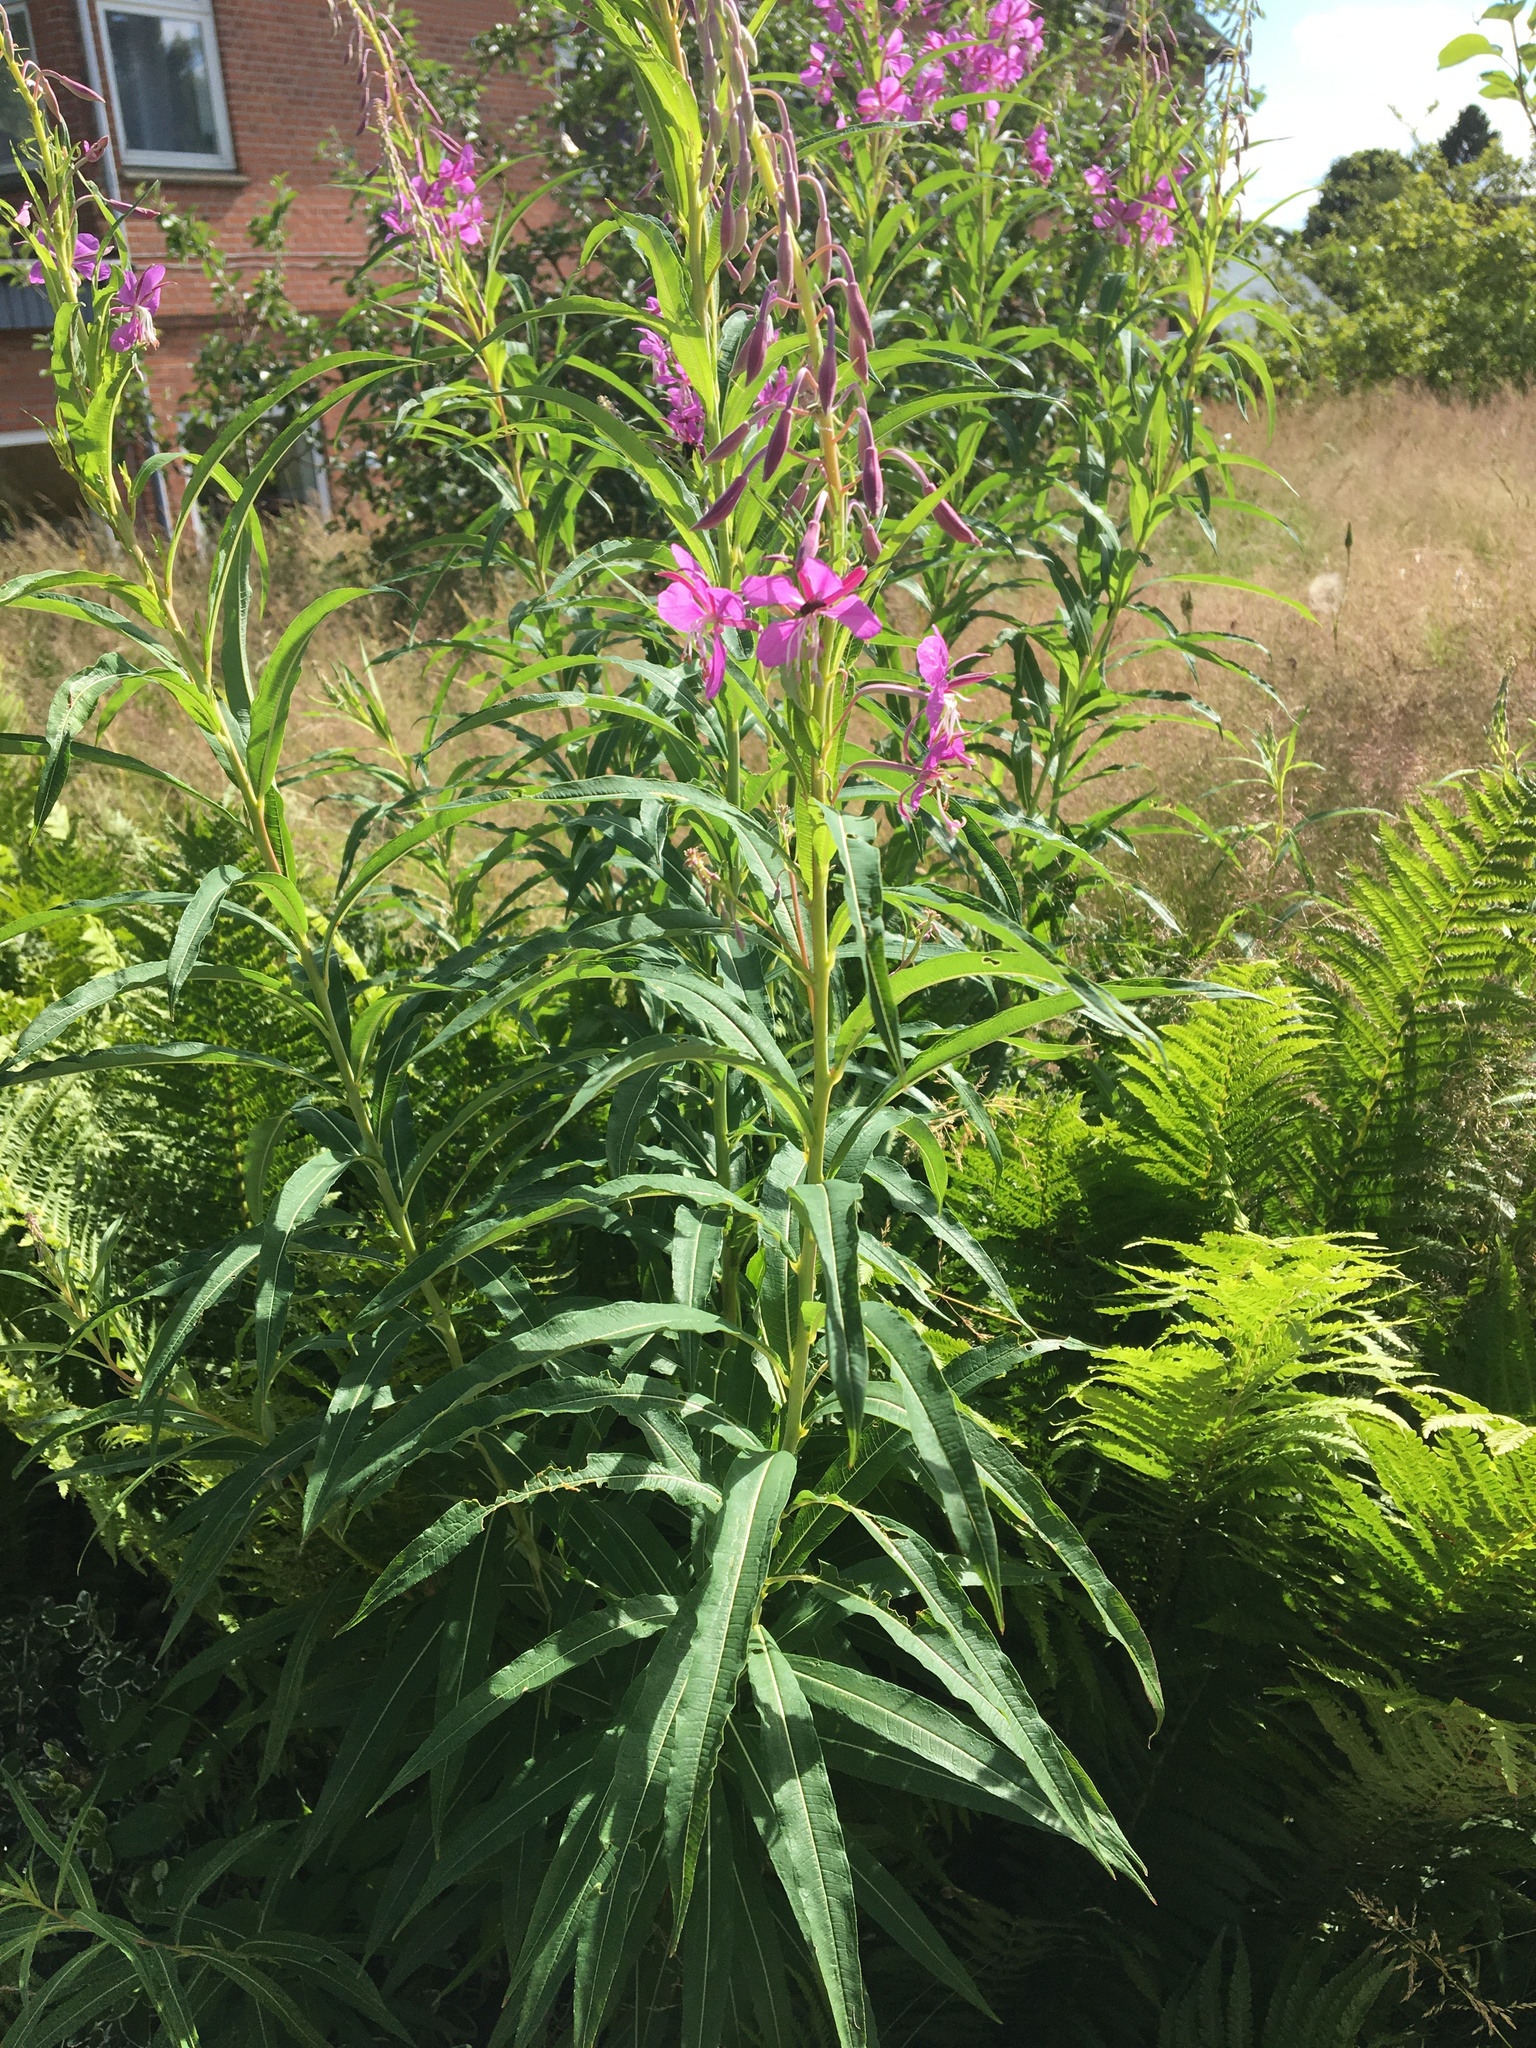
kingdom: Plantae
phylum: Tracheophyta
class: Magnoliopsida
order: Myrtales
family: Onagraceae
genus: Chamaenerion
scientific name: Chamaenerion angustifolium
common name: Fireweed
